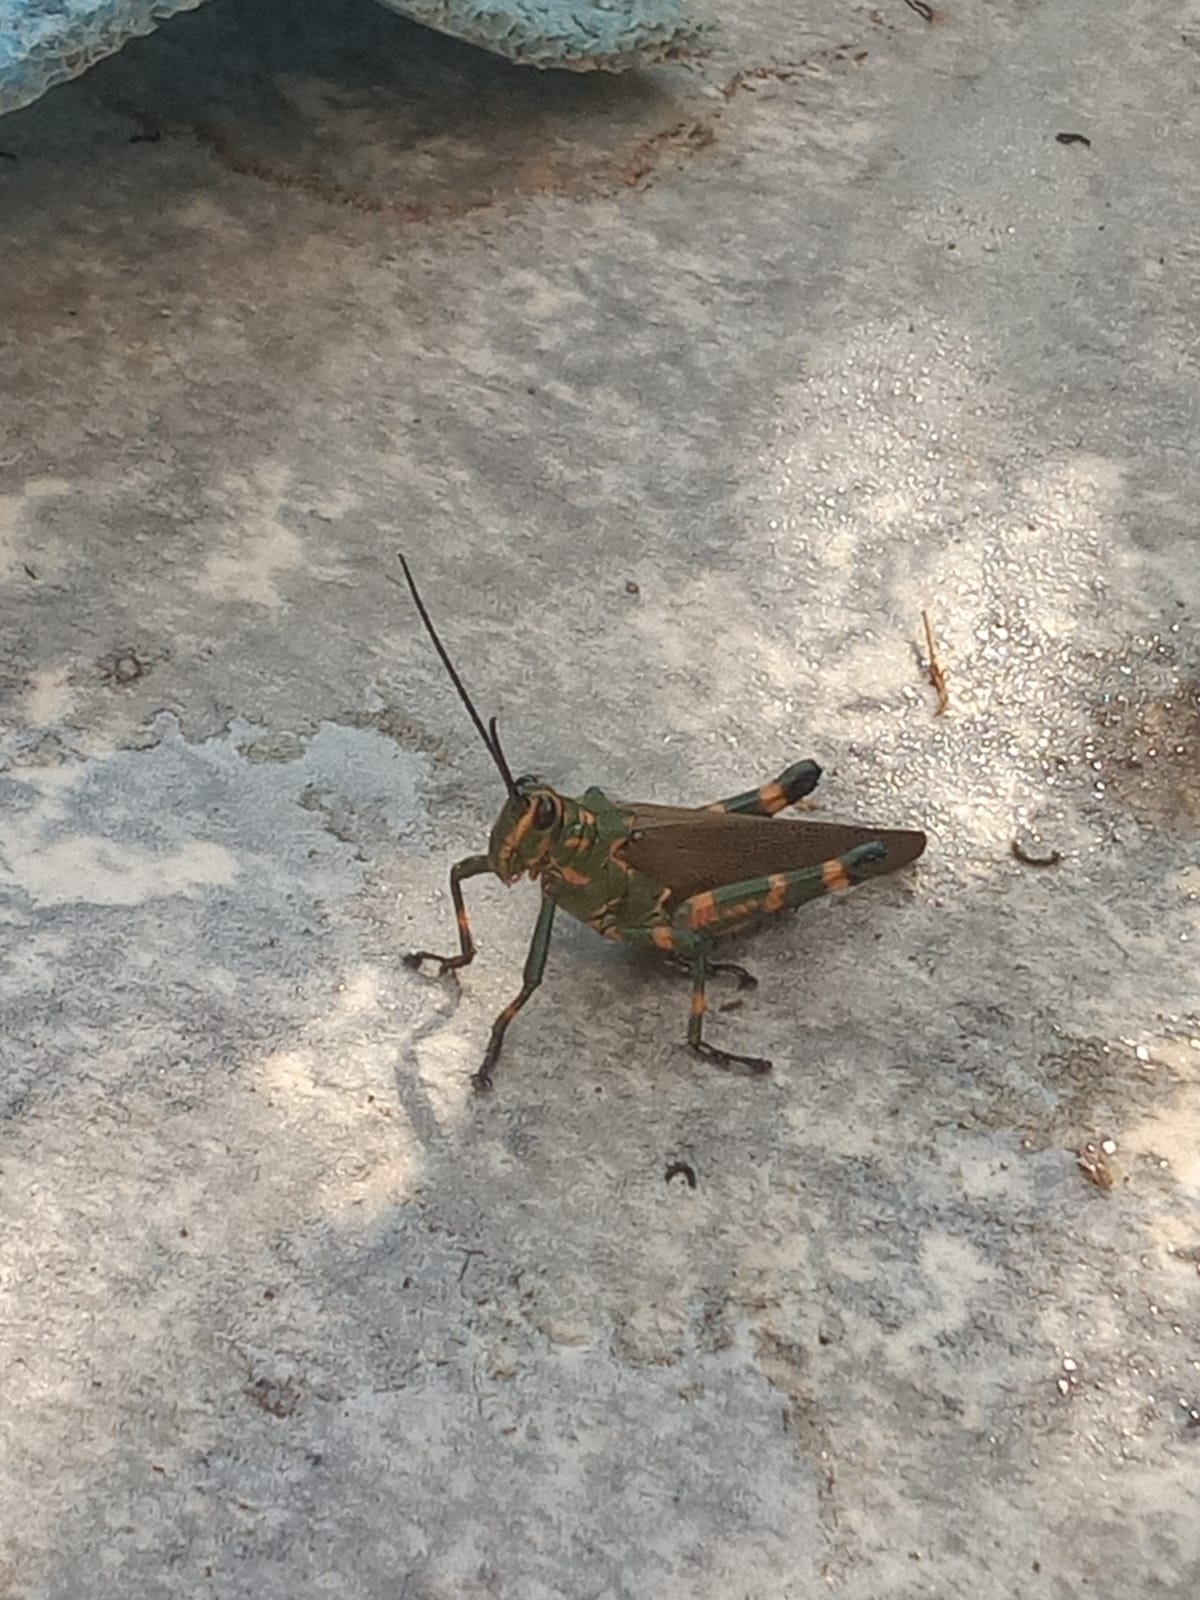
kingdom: Animalia
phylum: Arthropoda
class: Insecta
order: Orthoptera
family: Romaleidae
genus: Chromacris
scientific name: Chromacris speciosa
